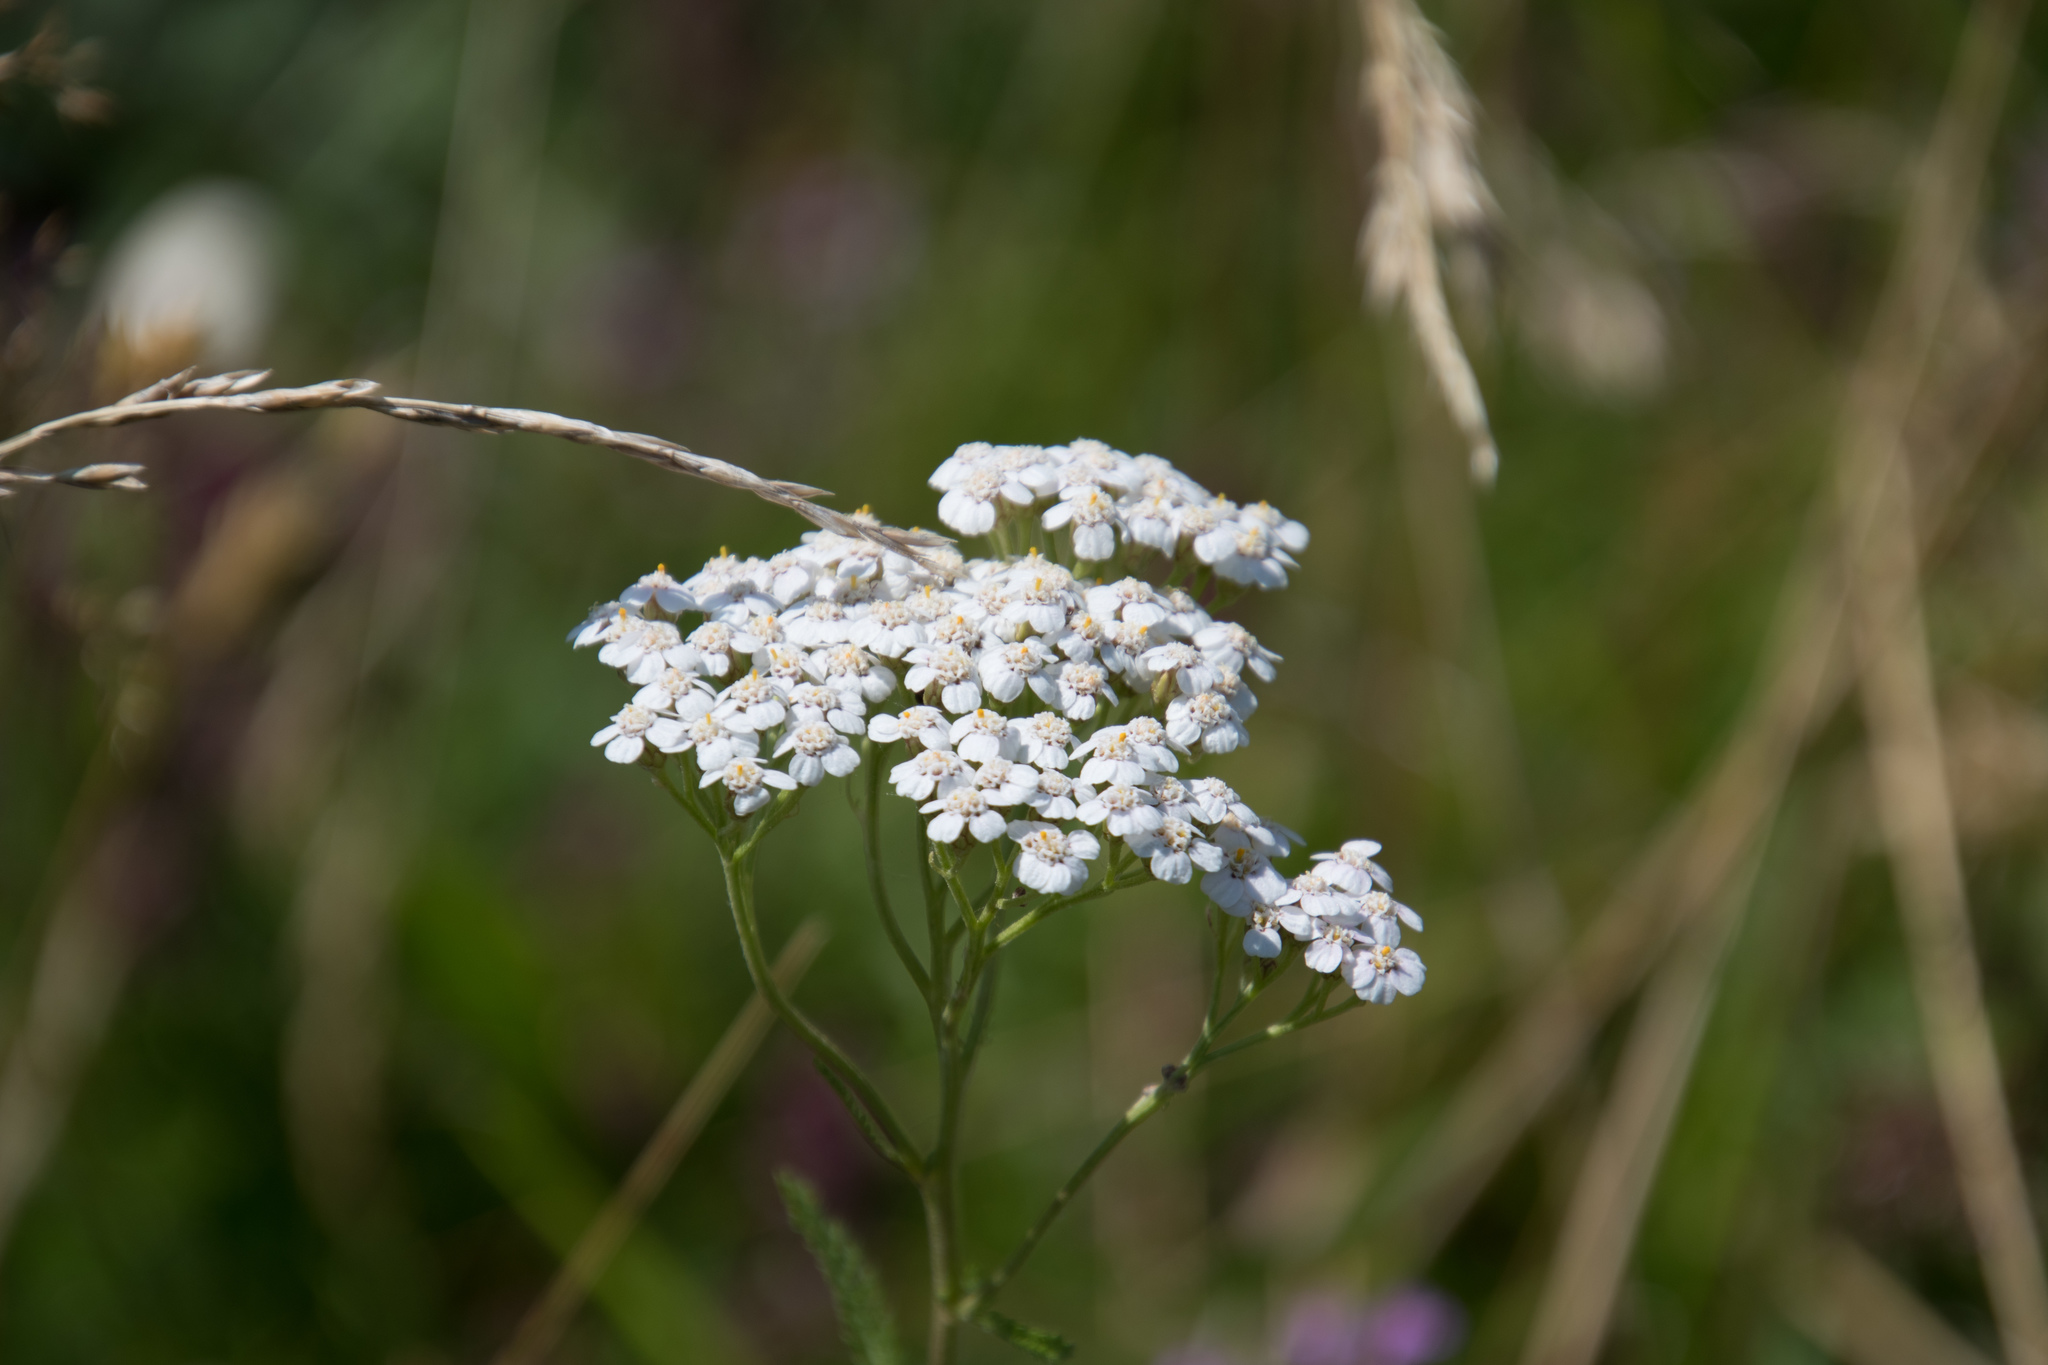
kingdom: Plantae
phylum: Tracheophyta
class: Magnoliopsida
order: Asterales
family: Asteraceae
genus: Achillea
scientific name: Achillea millefolium
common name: Yarrow
